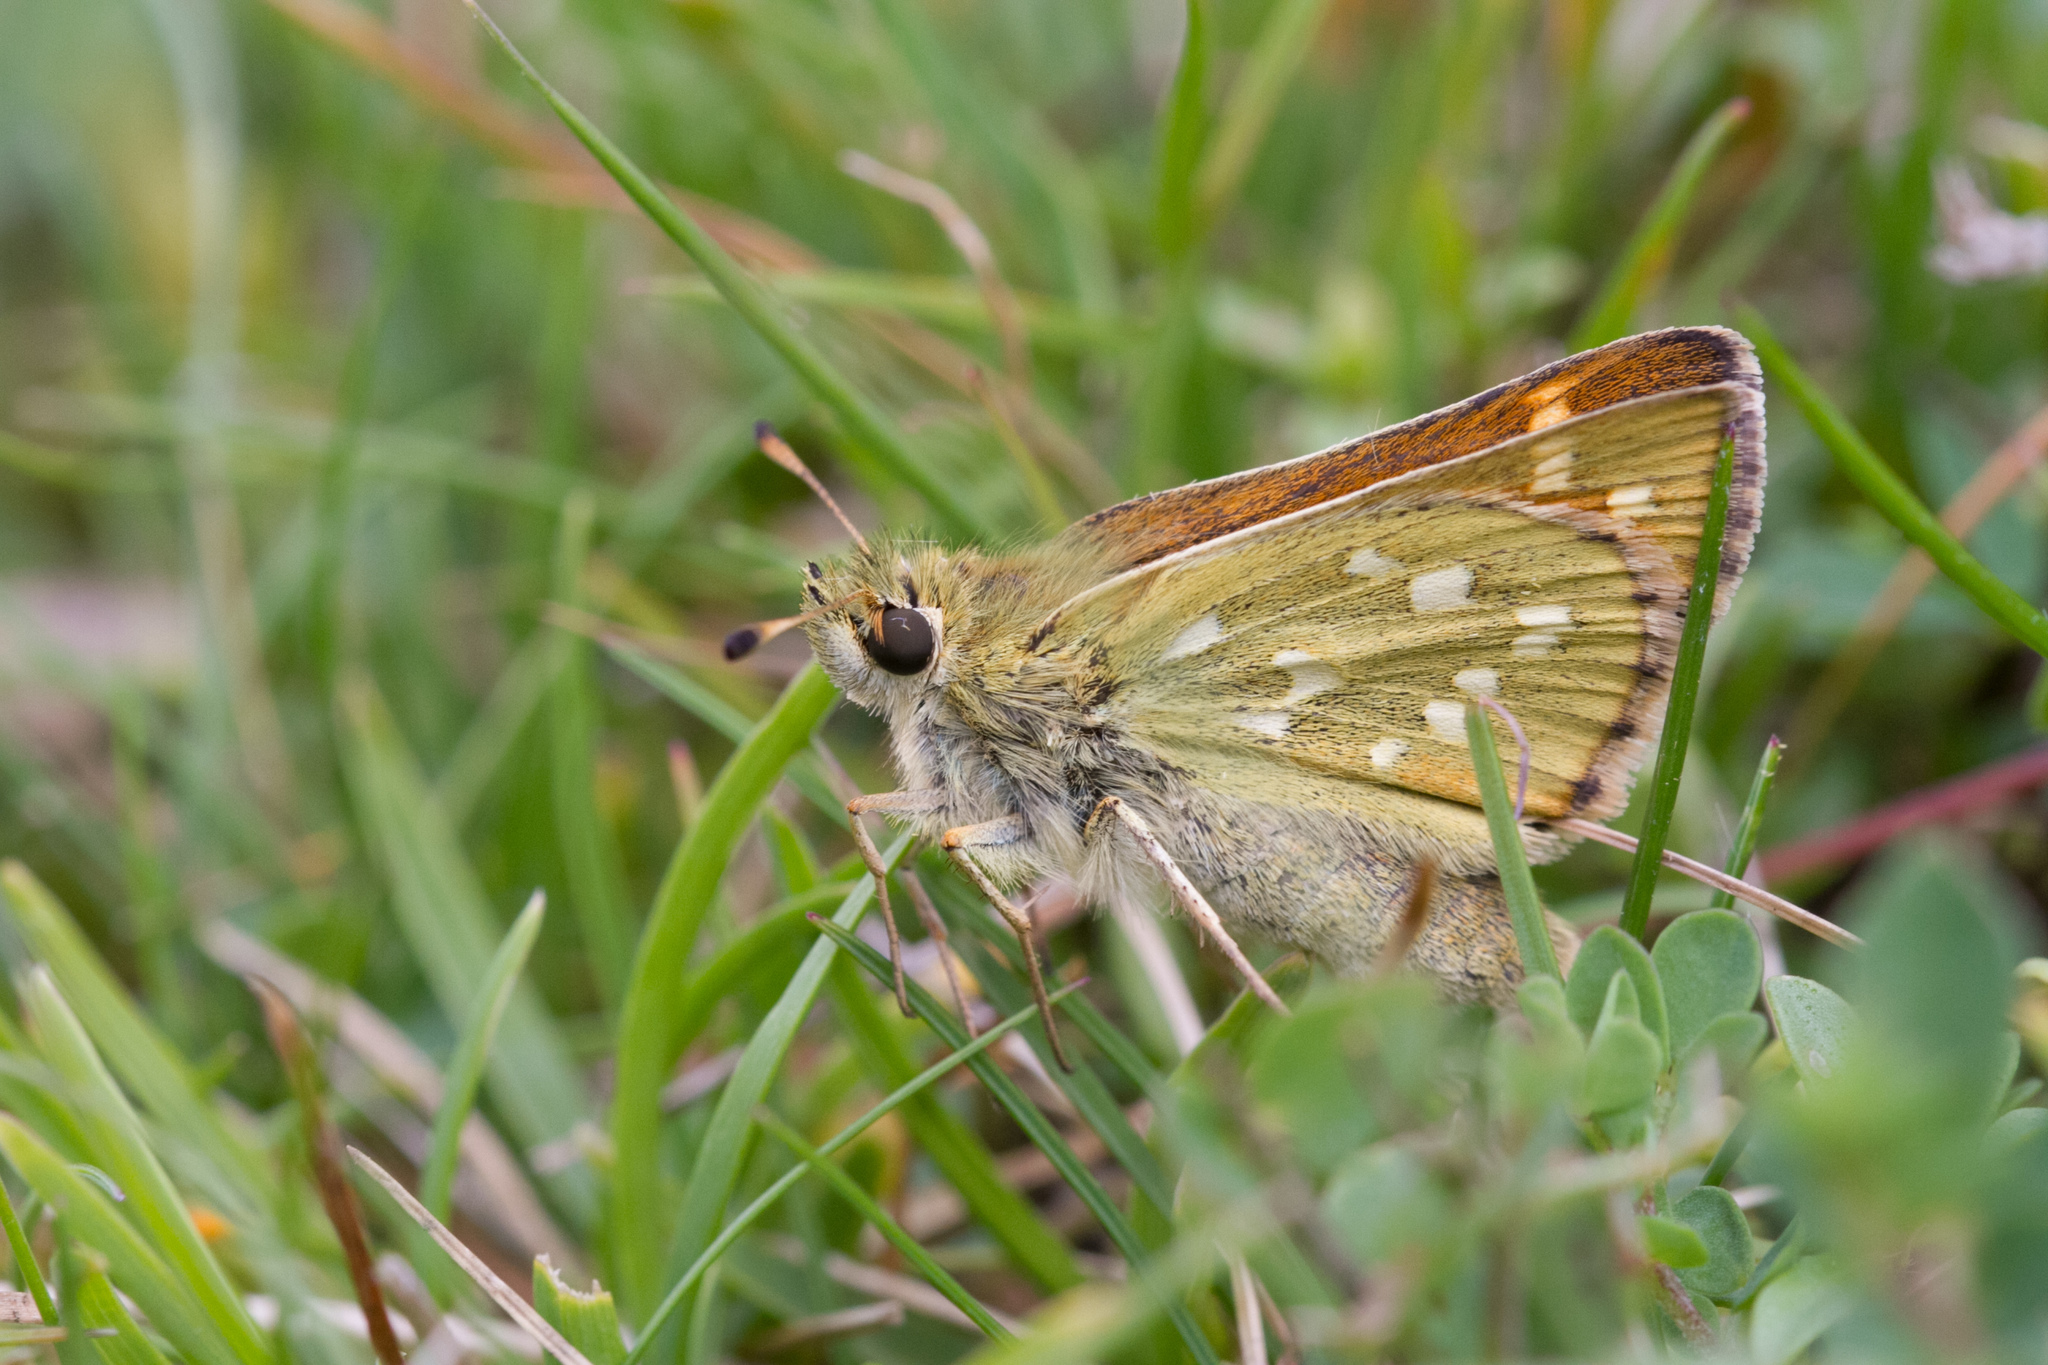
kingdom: Animalia
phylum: Arthropoda
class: Insecta
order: Lepidoptera
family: Hesperiidae
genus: Hesperia
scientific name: Hesperia comma
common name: Common branded skipper
